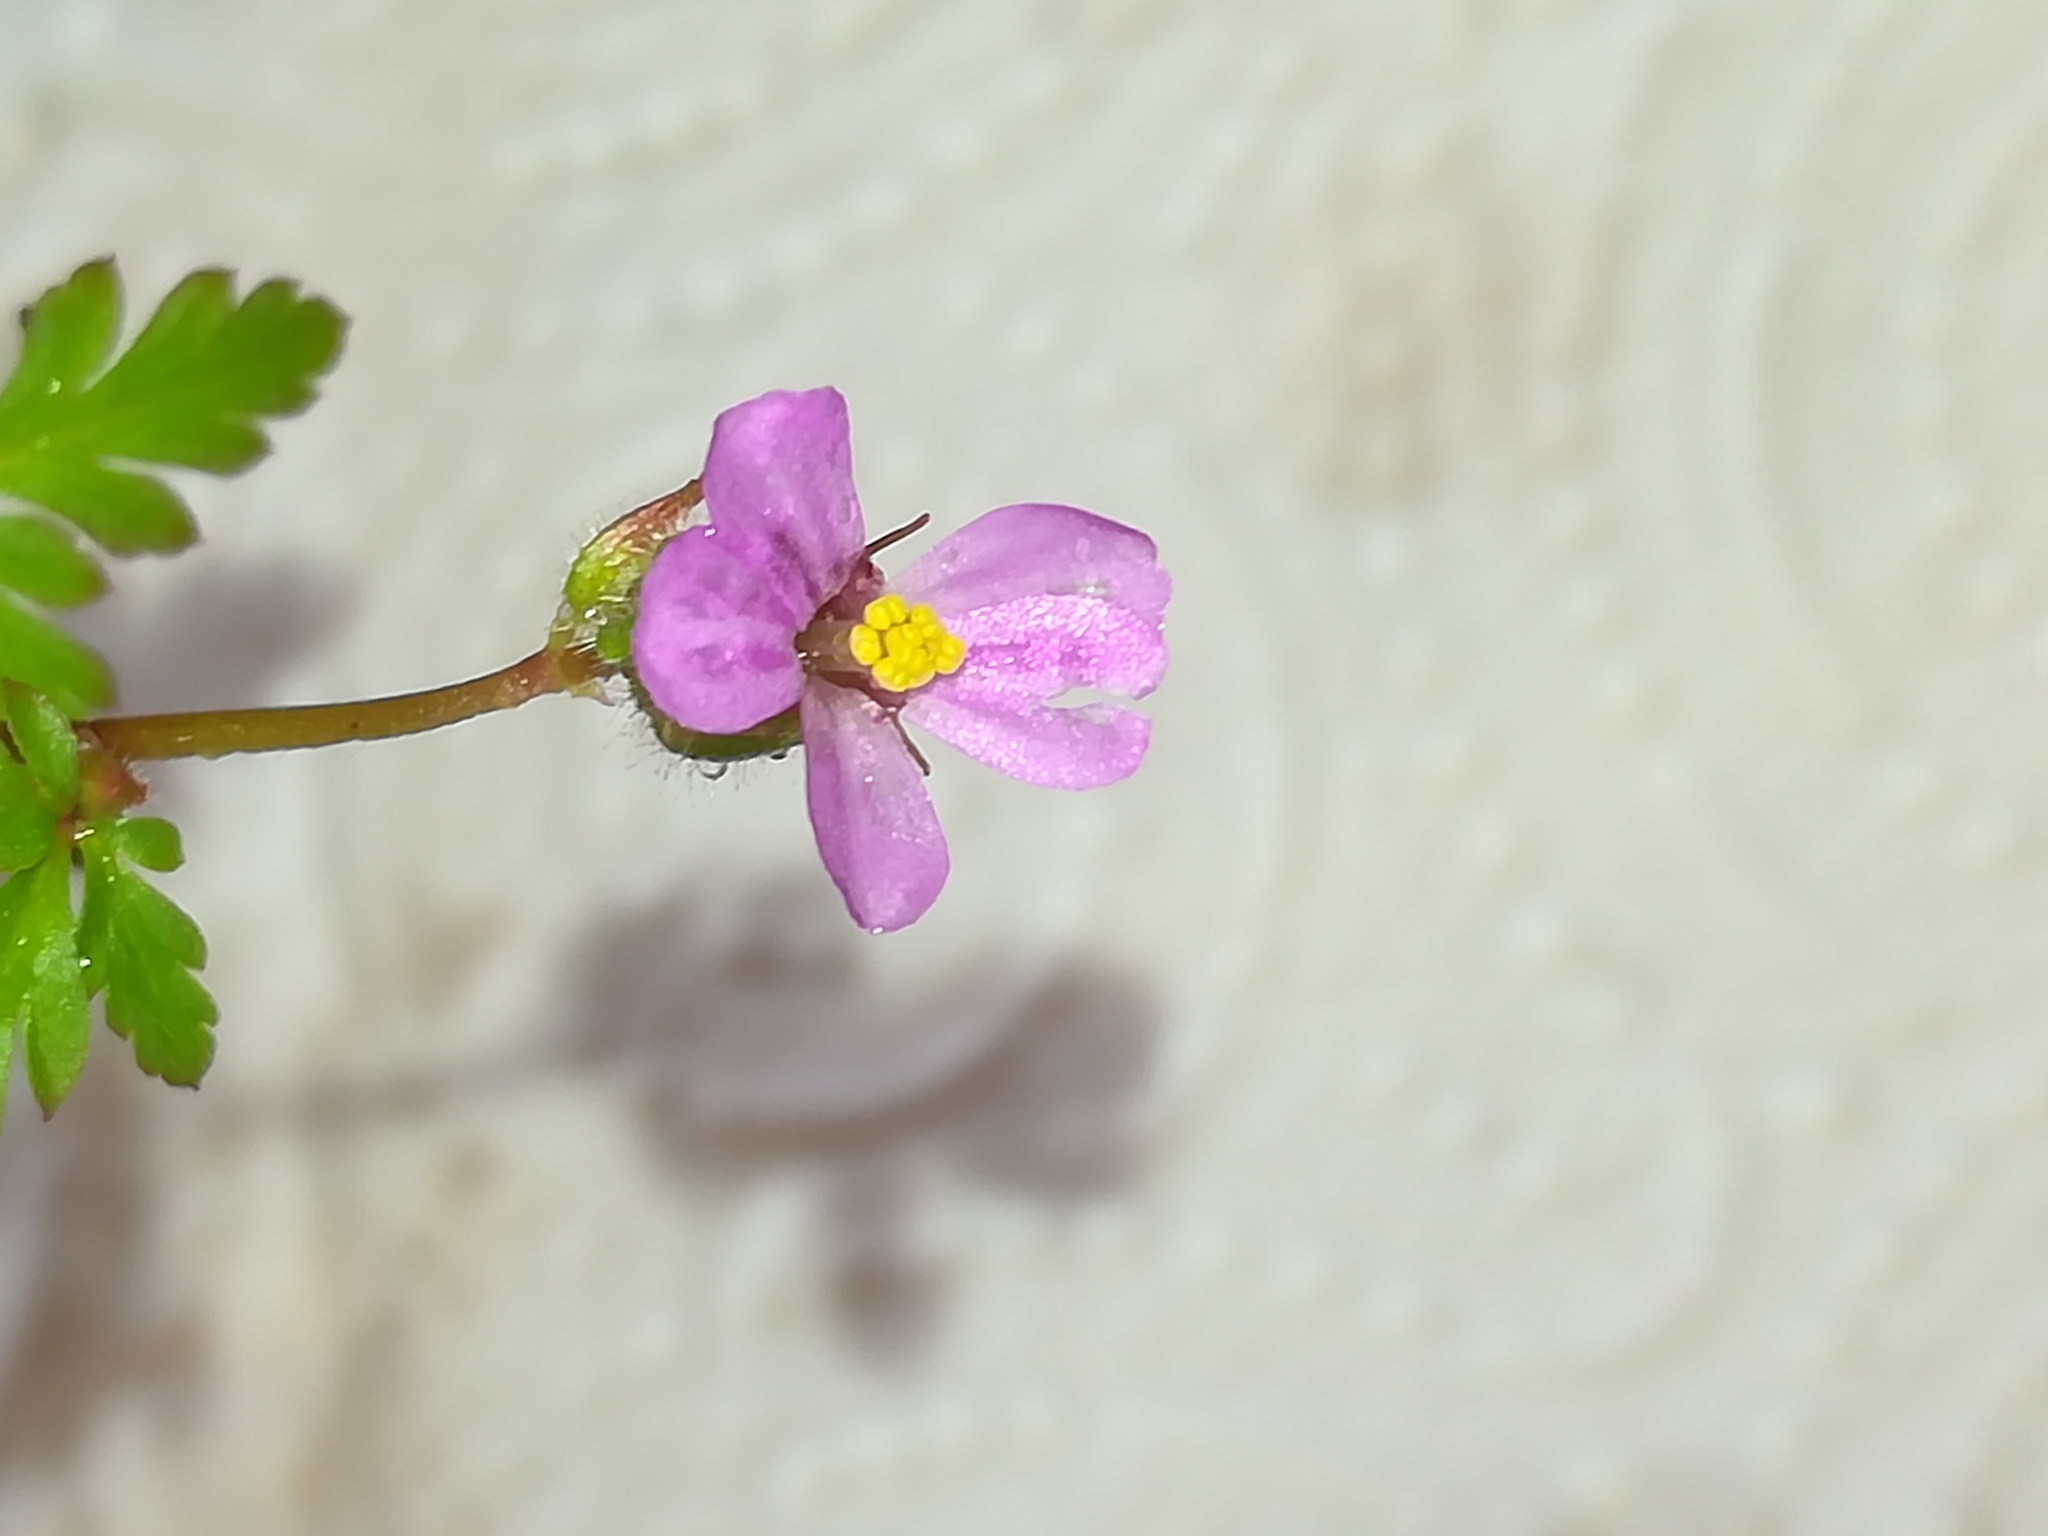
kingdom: Plantae
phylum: Tracheophyta
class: Magnoliopsida
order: Geraniales
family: Geraniaceae
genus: Geranium
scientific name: Geranium purpureum
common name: Little-robin
